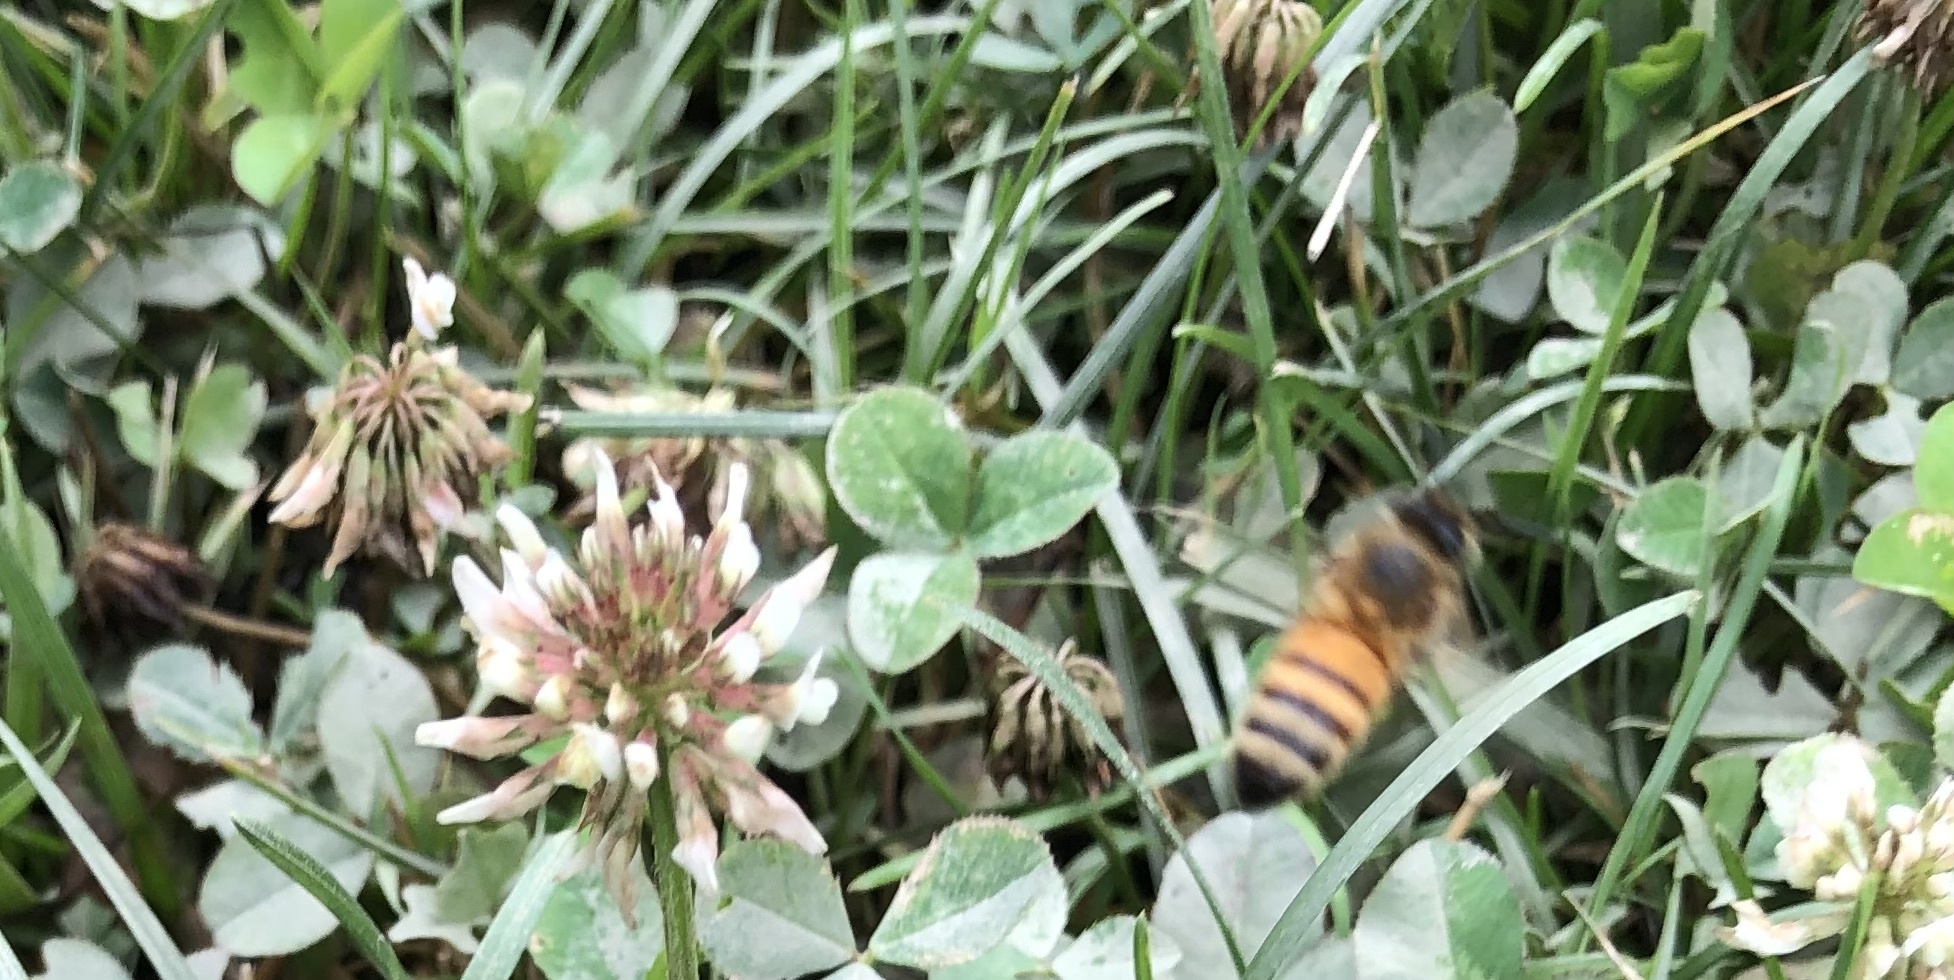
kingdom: Animalia
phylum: Arthropoda
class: Insecta
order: Hymenoptera
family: Apidae
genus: Apis
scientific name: Apis mellifera
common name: Honey bee
